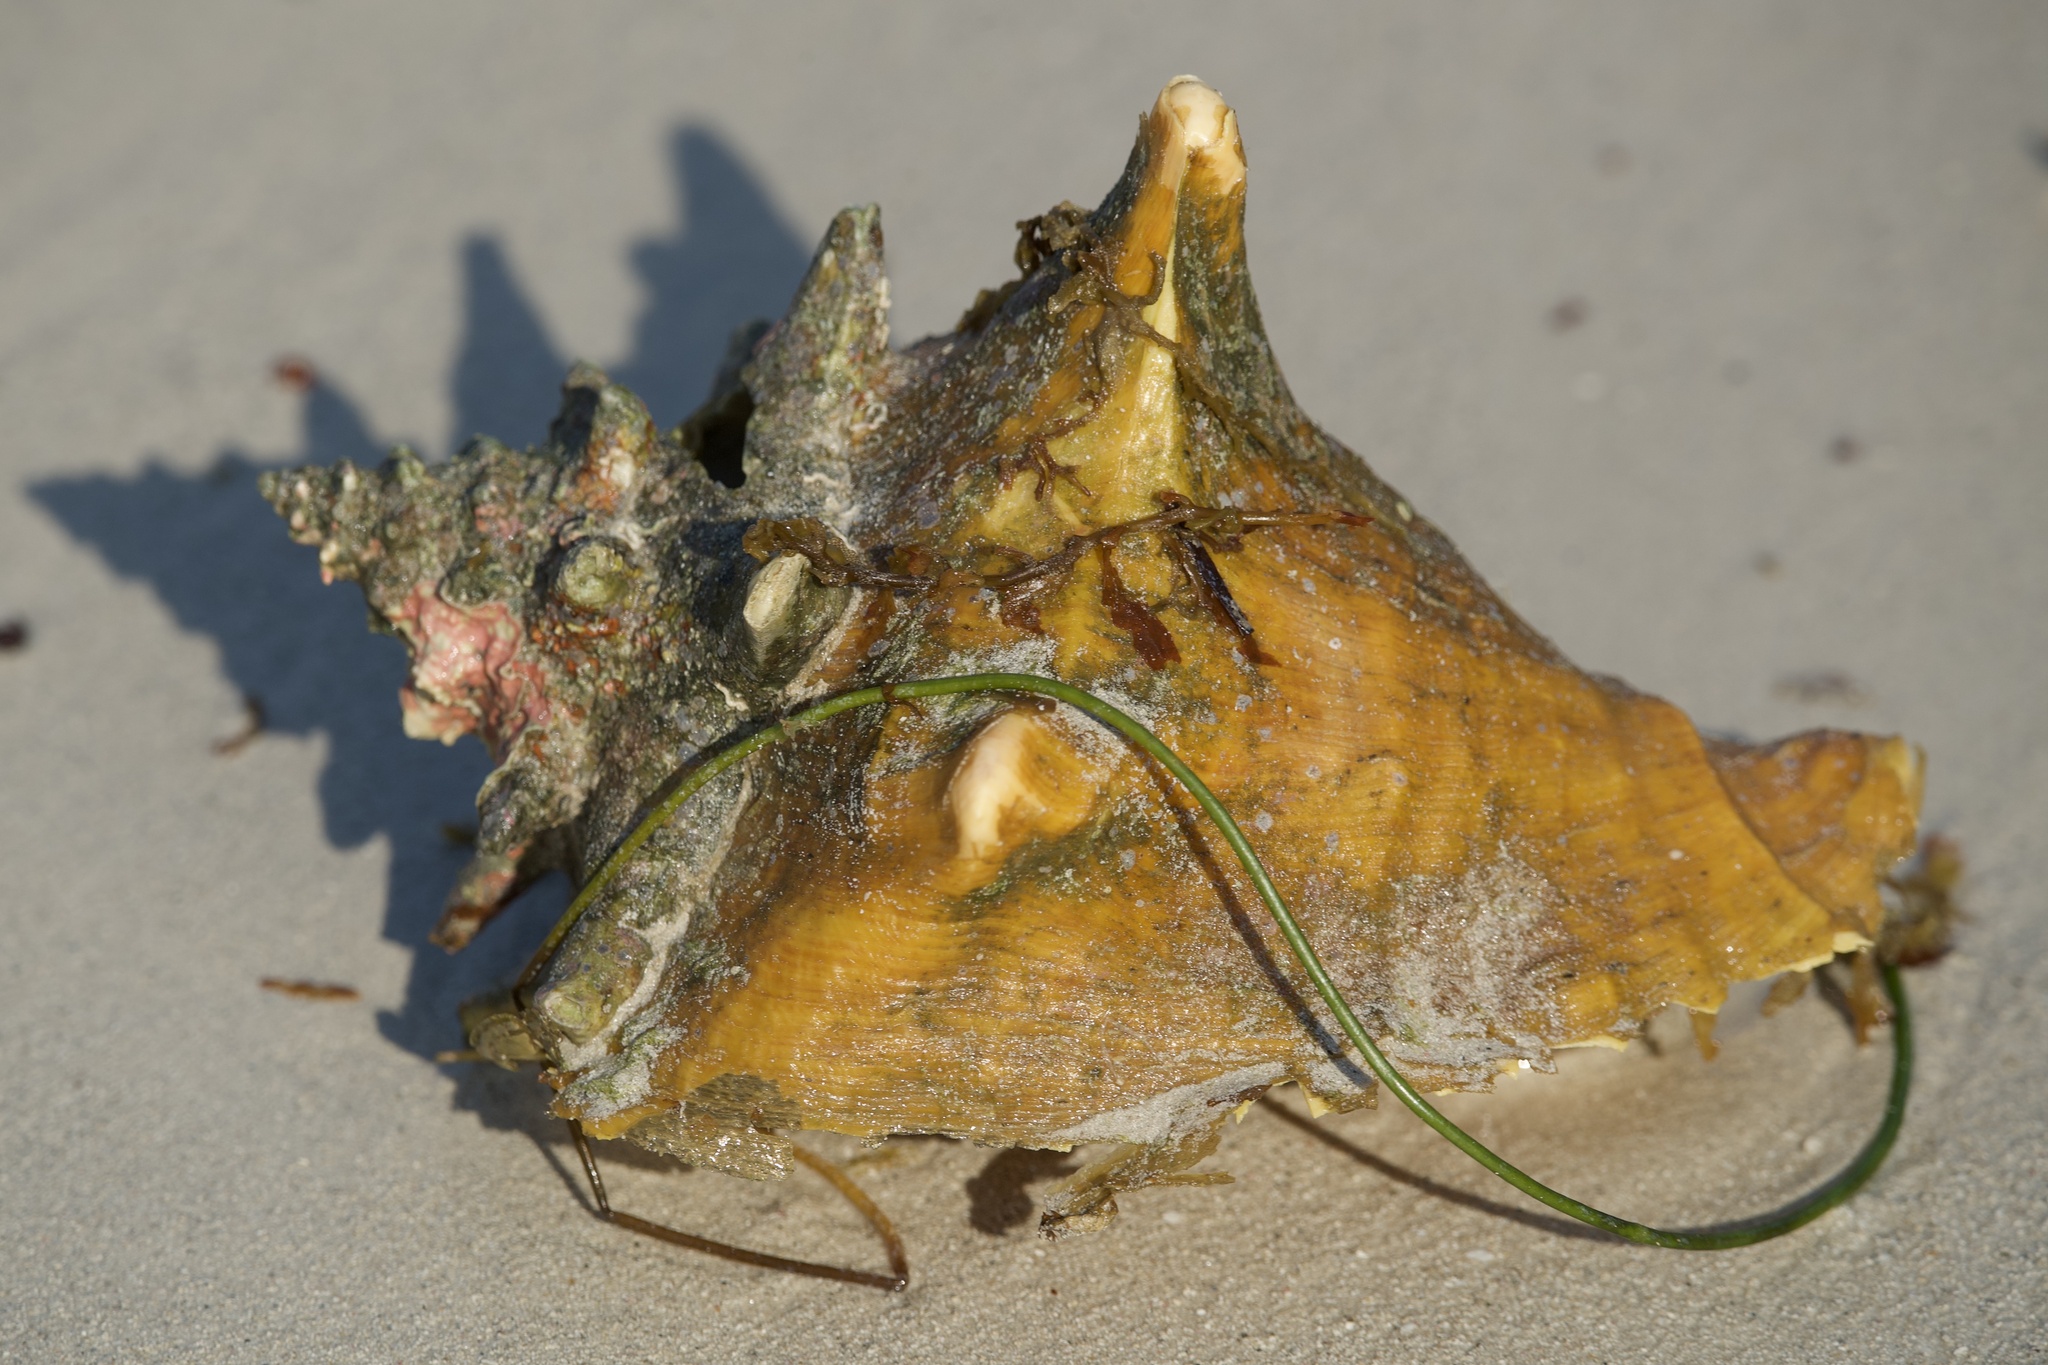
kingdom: Animalia
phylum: Mollusca
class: Gastropoda
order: Littorinimorpha
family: Strombidae
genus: Aliger
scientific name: Aliger gigas
